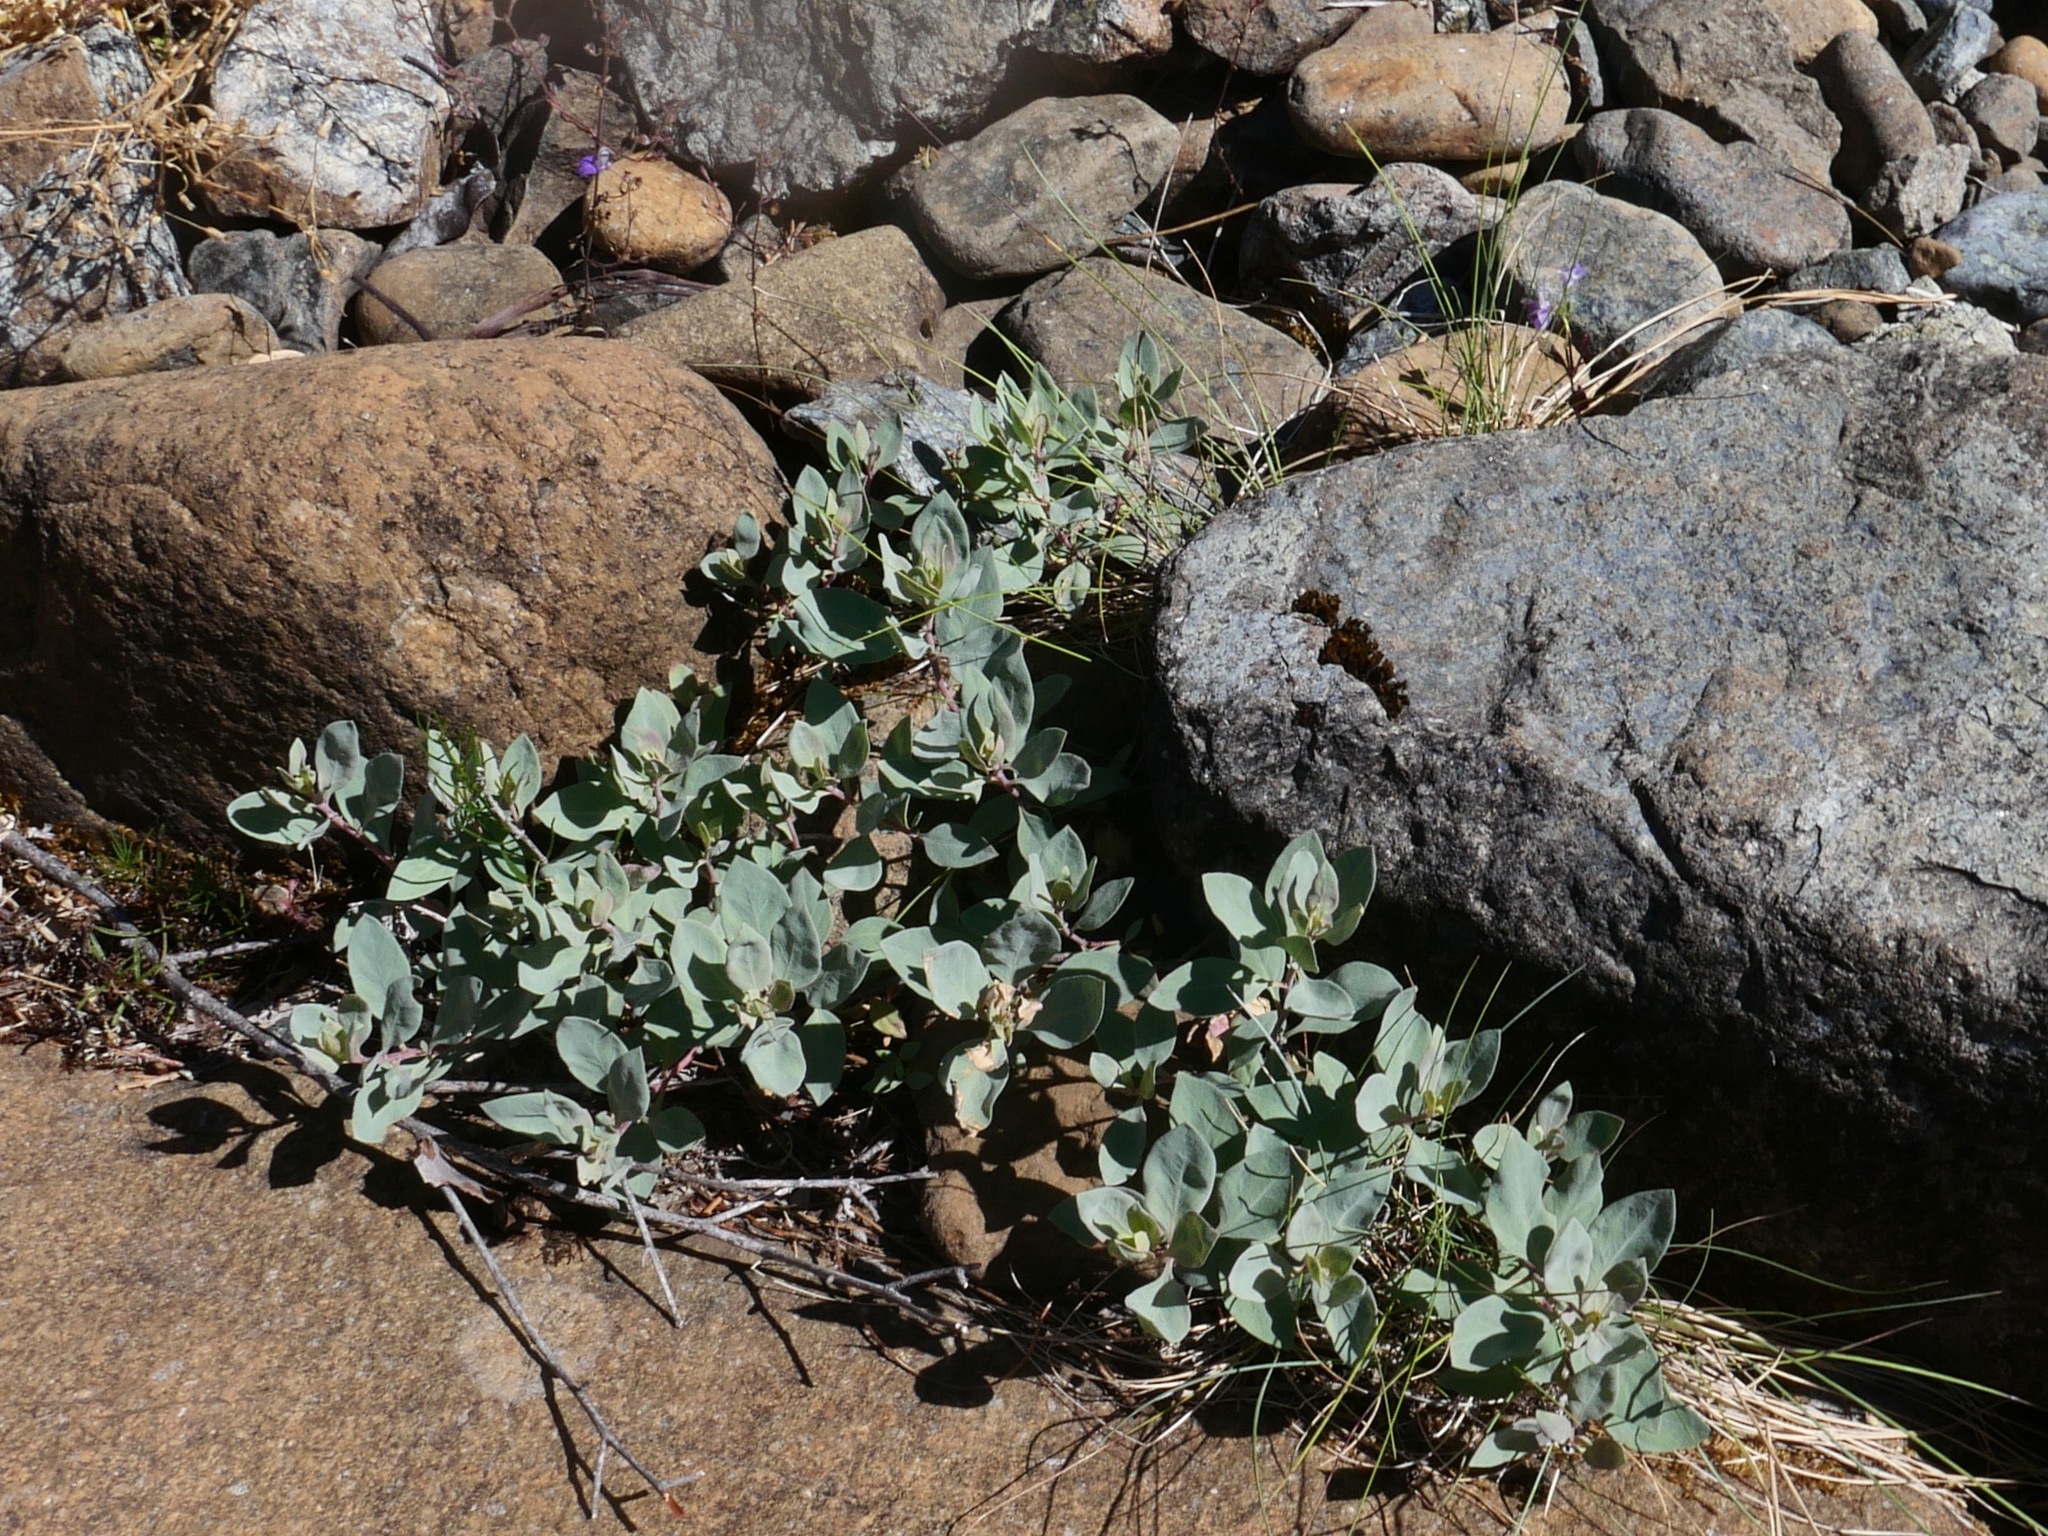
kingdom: Plantae
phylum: Tracheophyta
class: Magnoliopsida
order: Myrtales
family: Onagraceae
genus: Epilobium
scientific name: Epilobium rigidum
